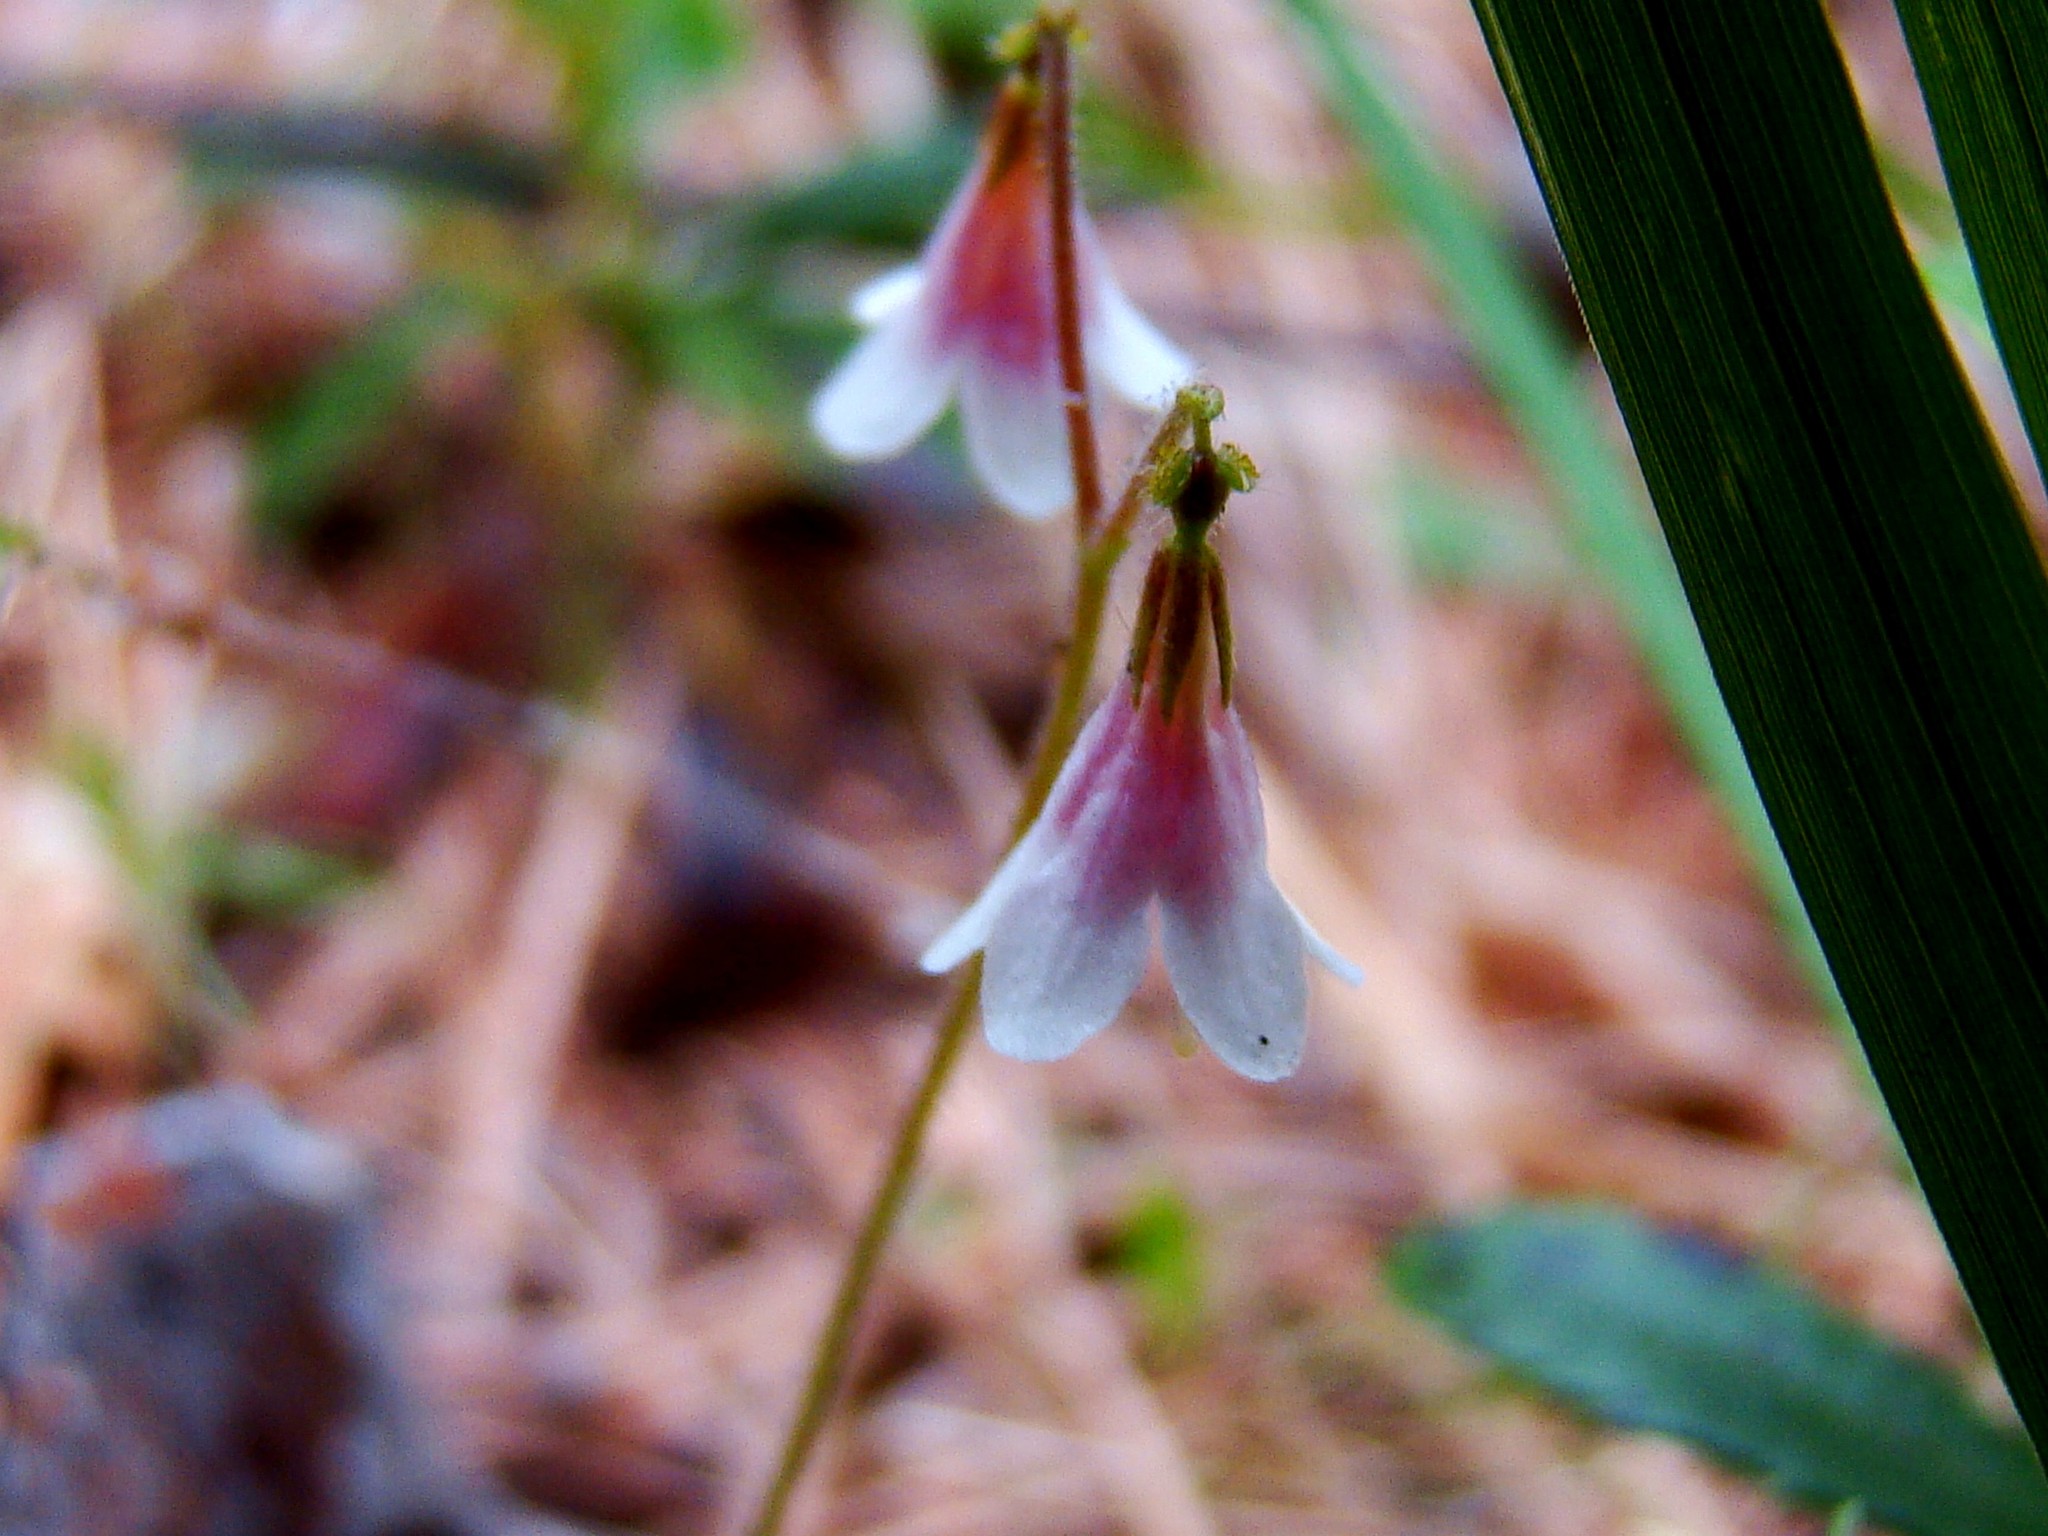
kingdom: Plantae
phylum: Tracheophyta
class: Magnoliopsida
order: Dipsacales
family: Caprifoliaceae
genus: Linnaea
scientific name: Linnaea borealis
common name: Twinflower
